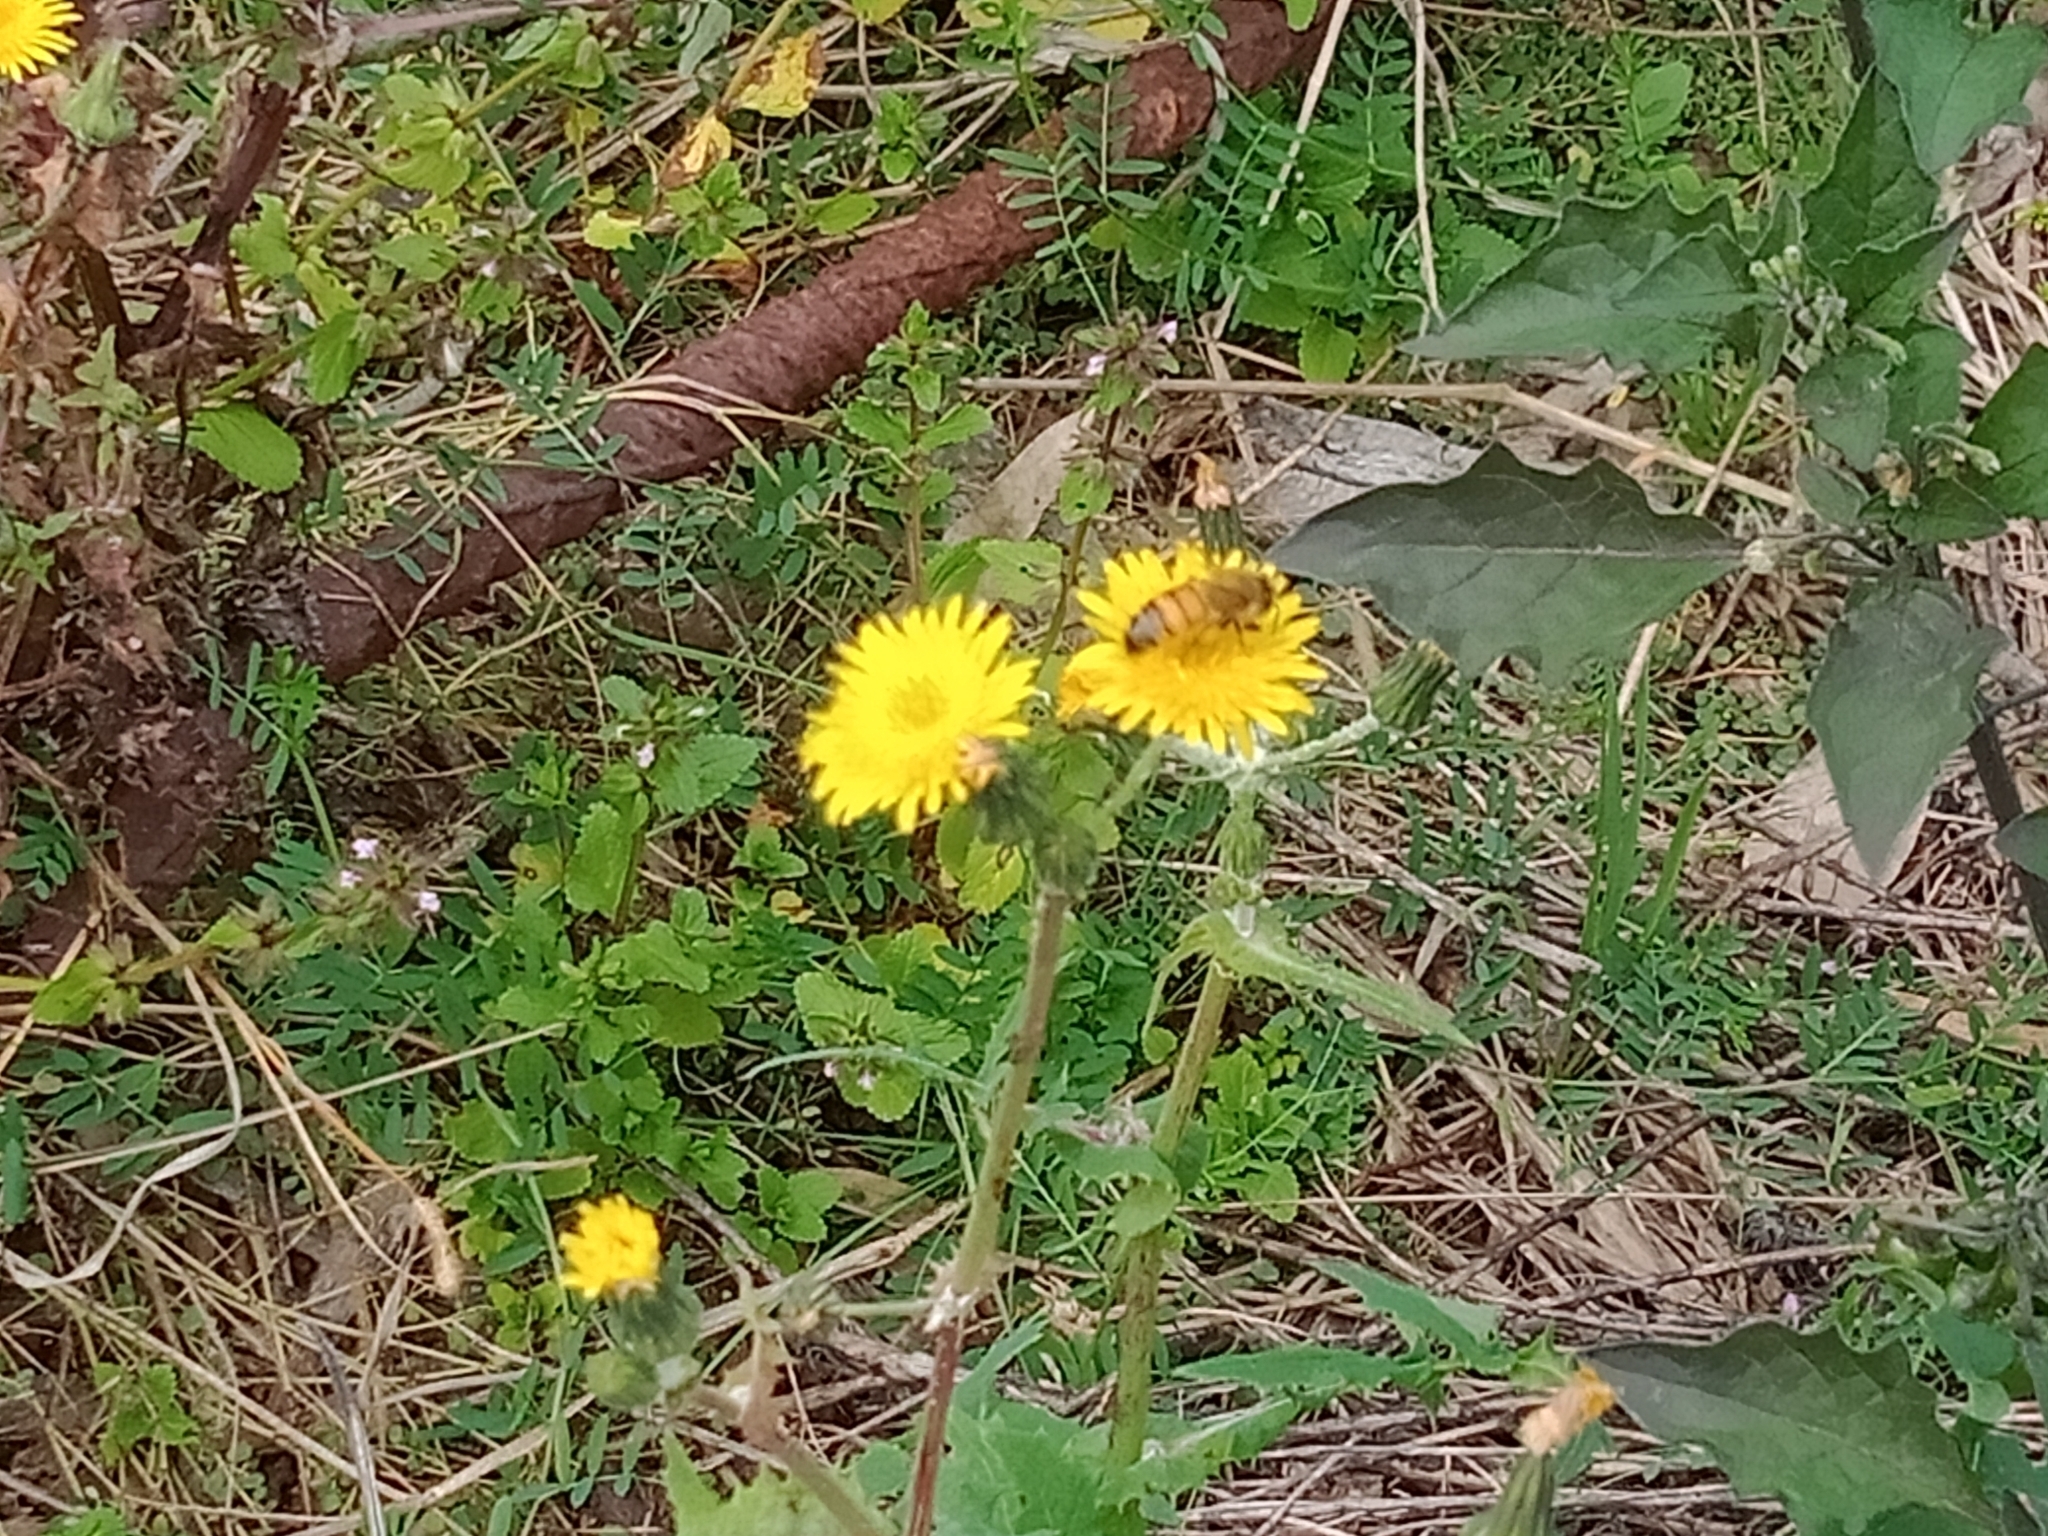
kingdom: Animalia
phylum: Arthropoda
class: Insecta
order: Hymenoptera
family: Apidae
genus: Apis
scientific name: Apis mellifera
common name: Honey bee
